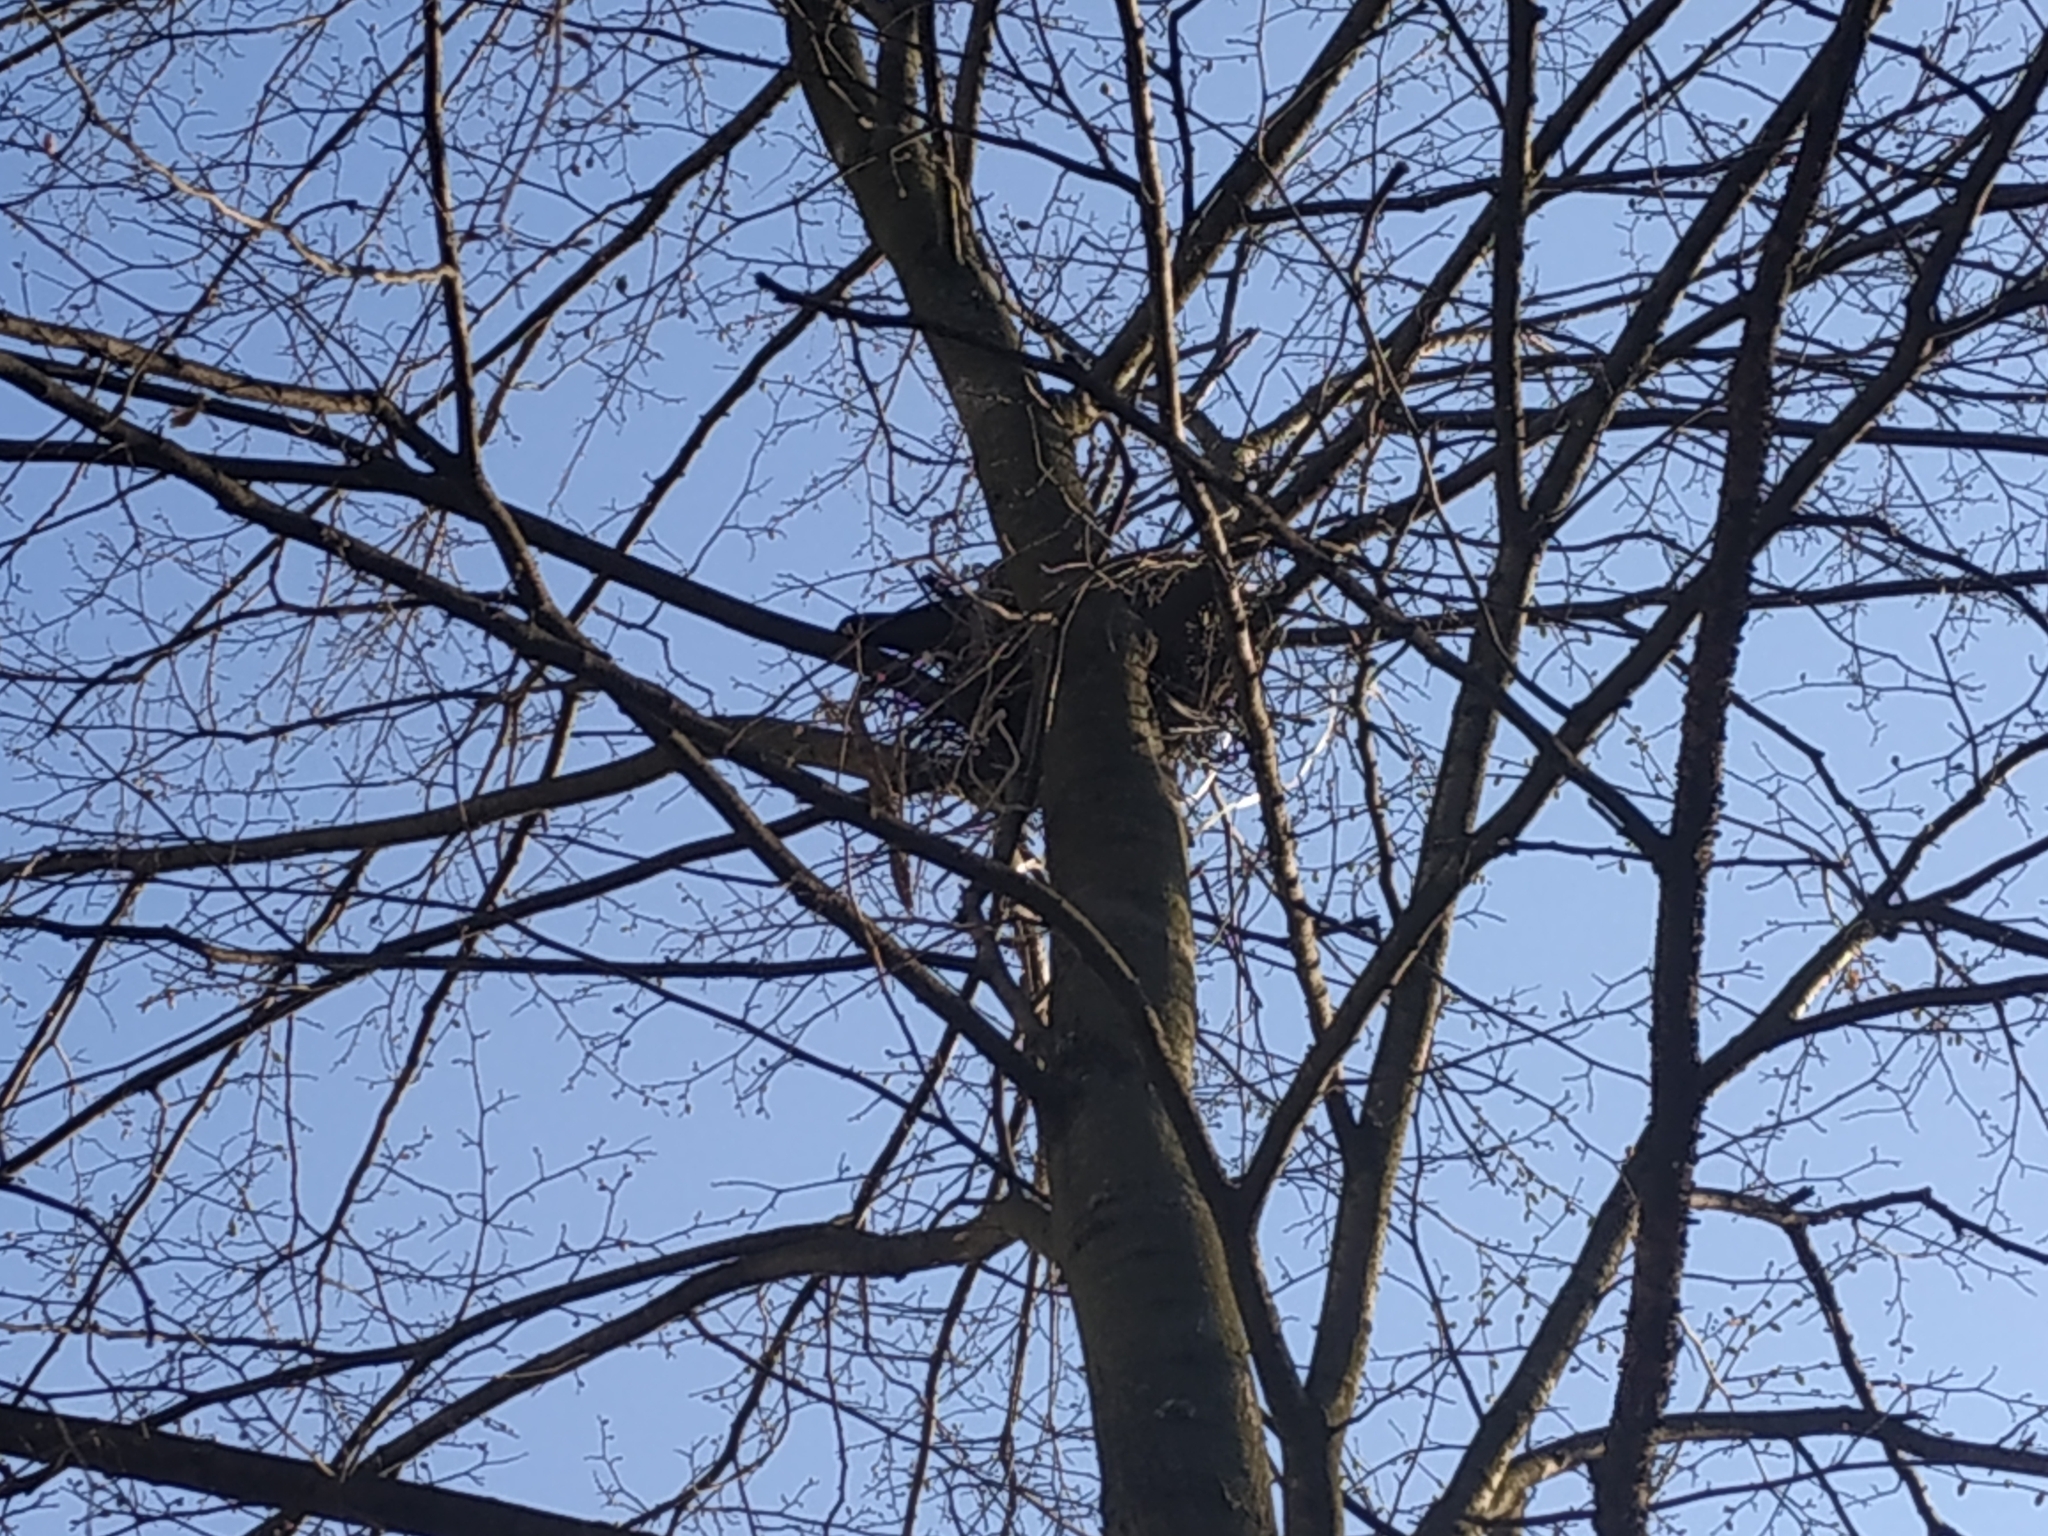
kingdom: Animalia
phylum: Chordata
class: Aves
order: Passeriformes
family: Corvidae
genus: Corvus
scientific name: Corvus cornix
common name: Hooded crow
